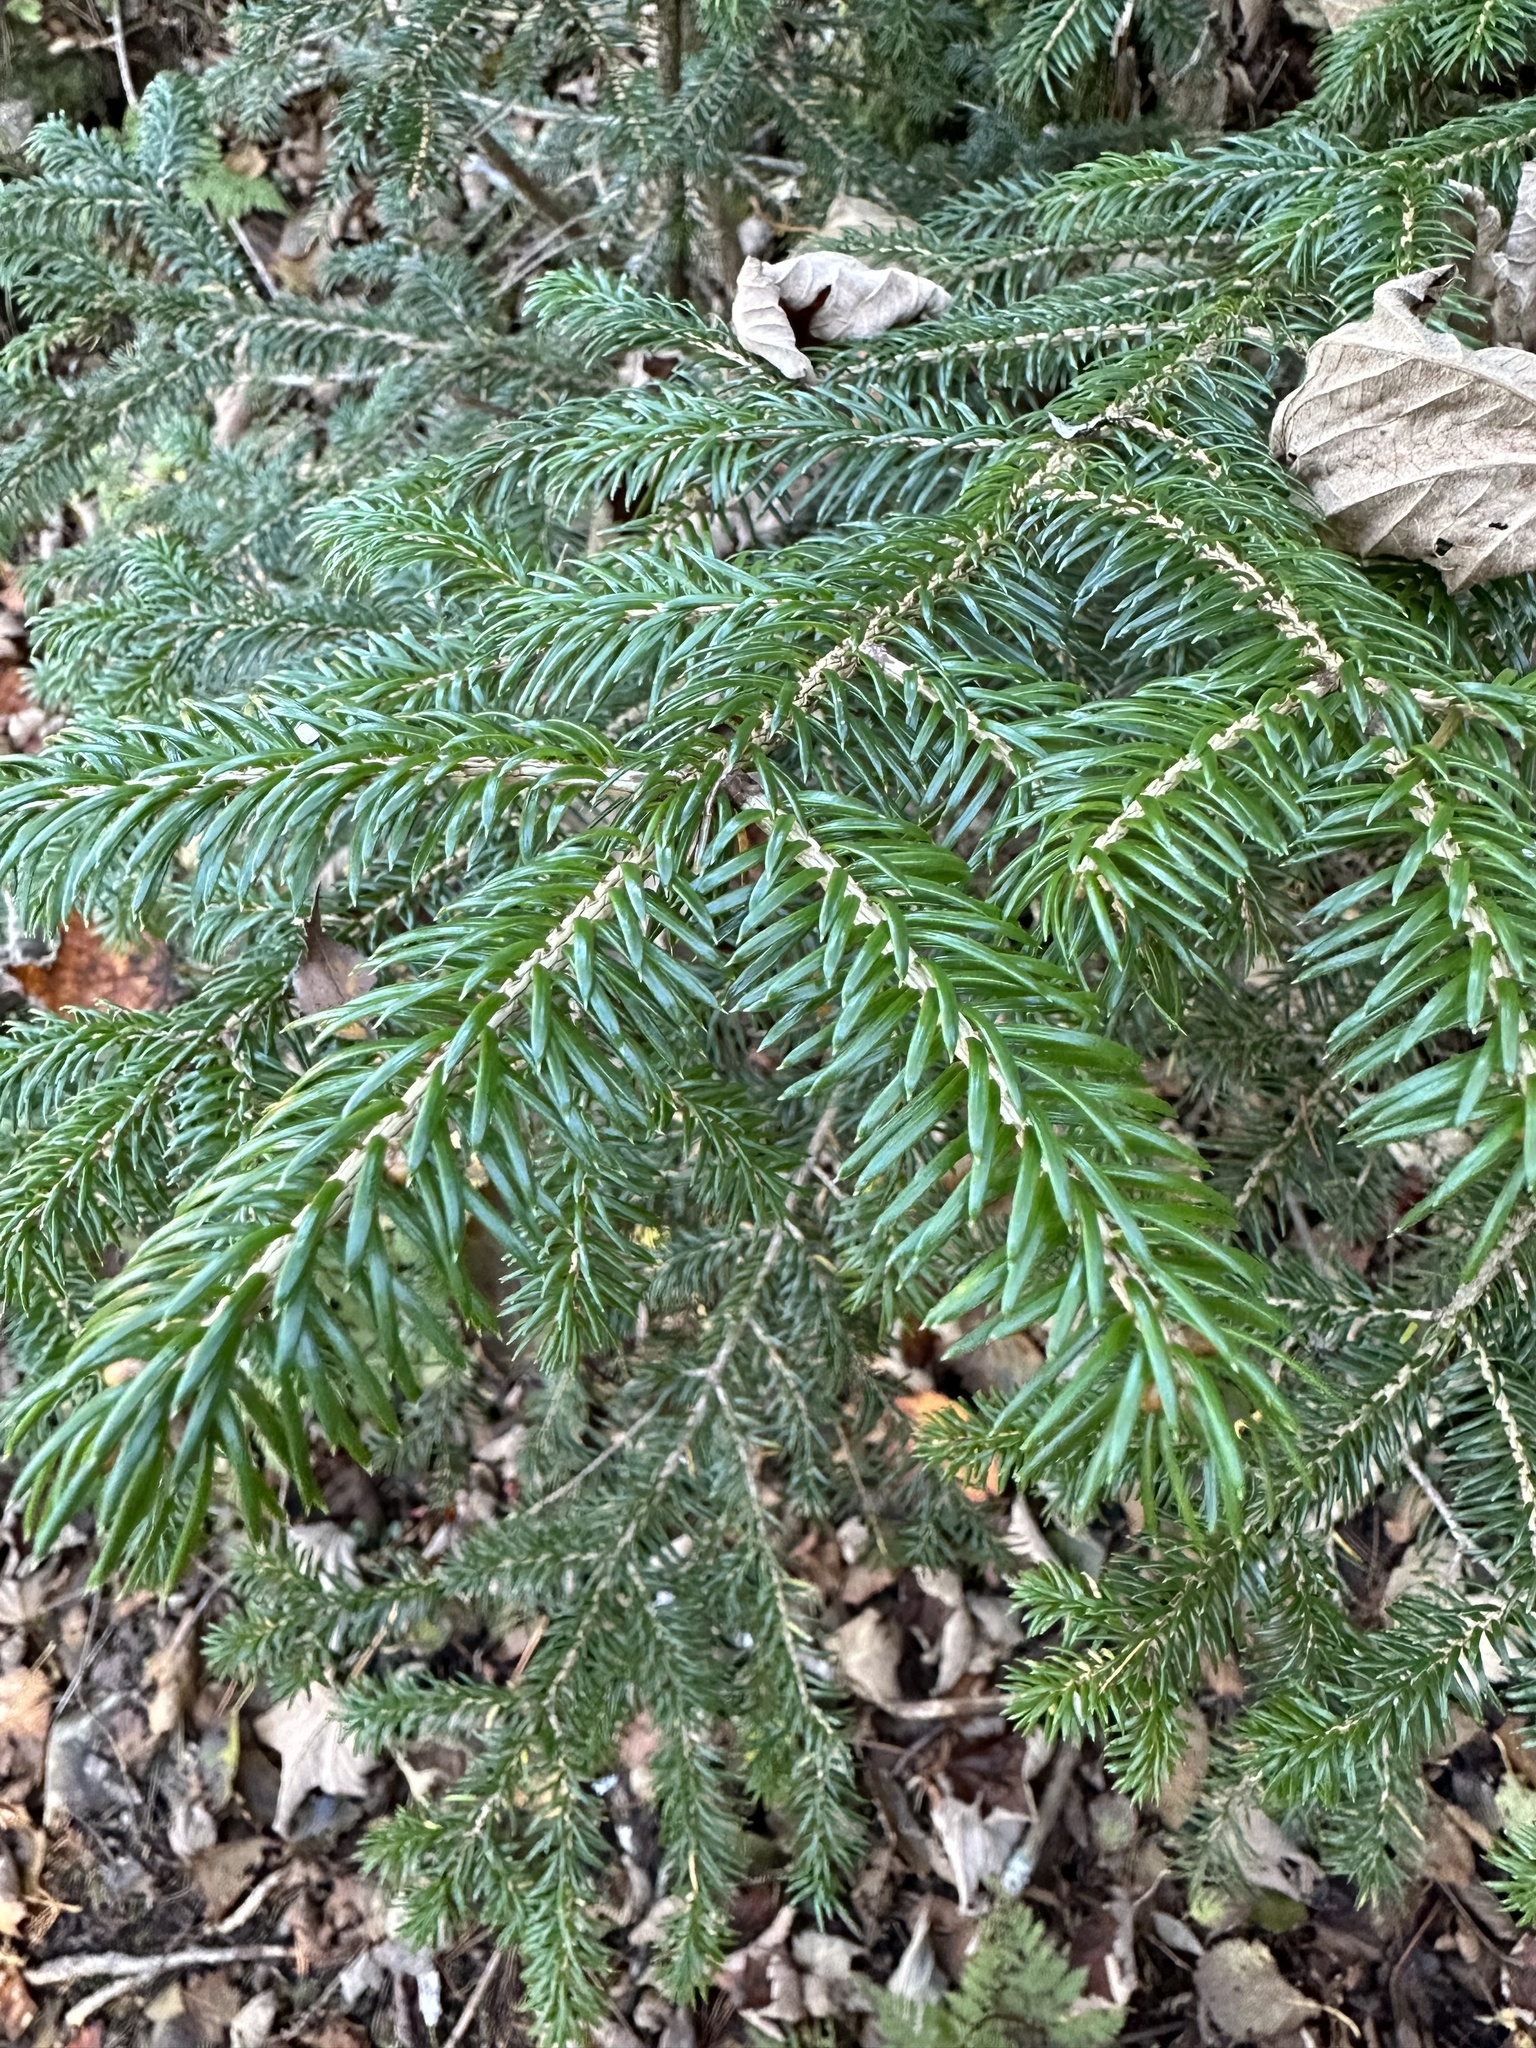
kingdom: Plantae
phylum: Tracheophyta
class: Pinopsida
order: Pinales
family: Pinaceae
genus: Picea
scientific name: Picea jezoensis
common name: Yeddo spruce
